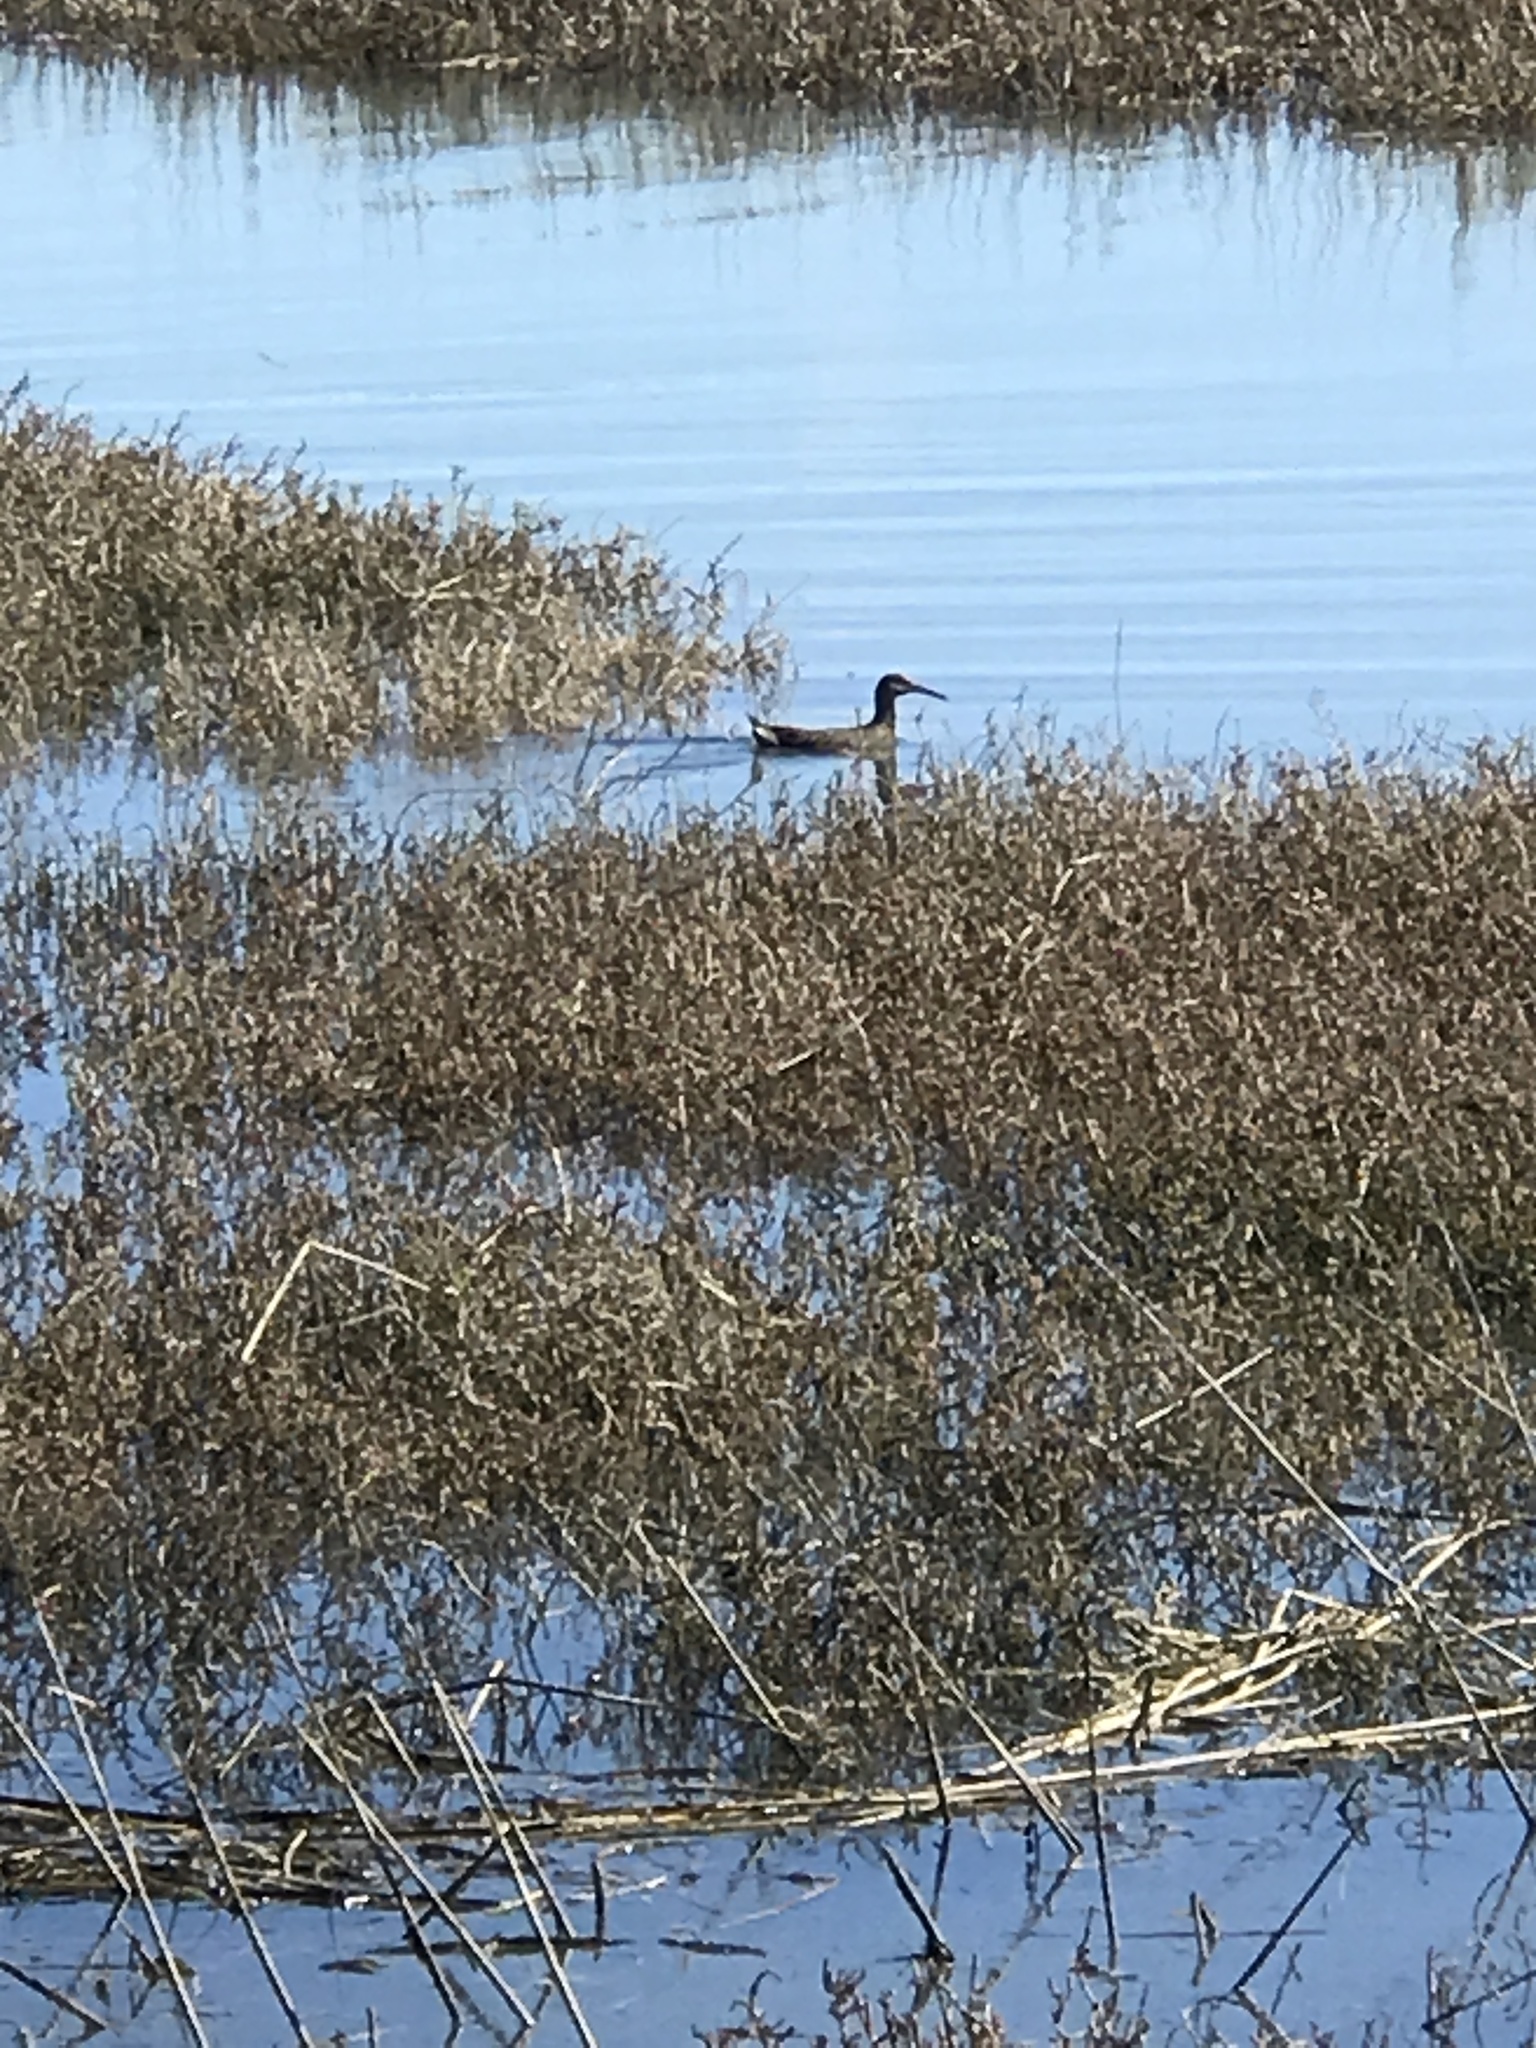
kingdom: Animalia
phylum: Chordata
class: Aves
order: Gruiformes
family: Rallidae
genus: Rallus
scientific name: Rallus obsoletus
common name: Ridgway's rail
